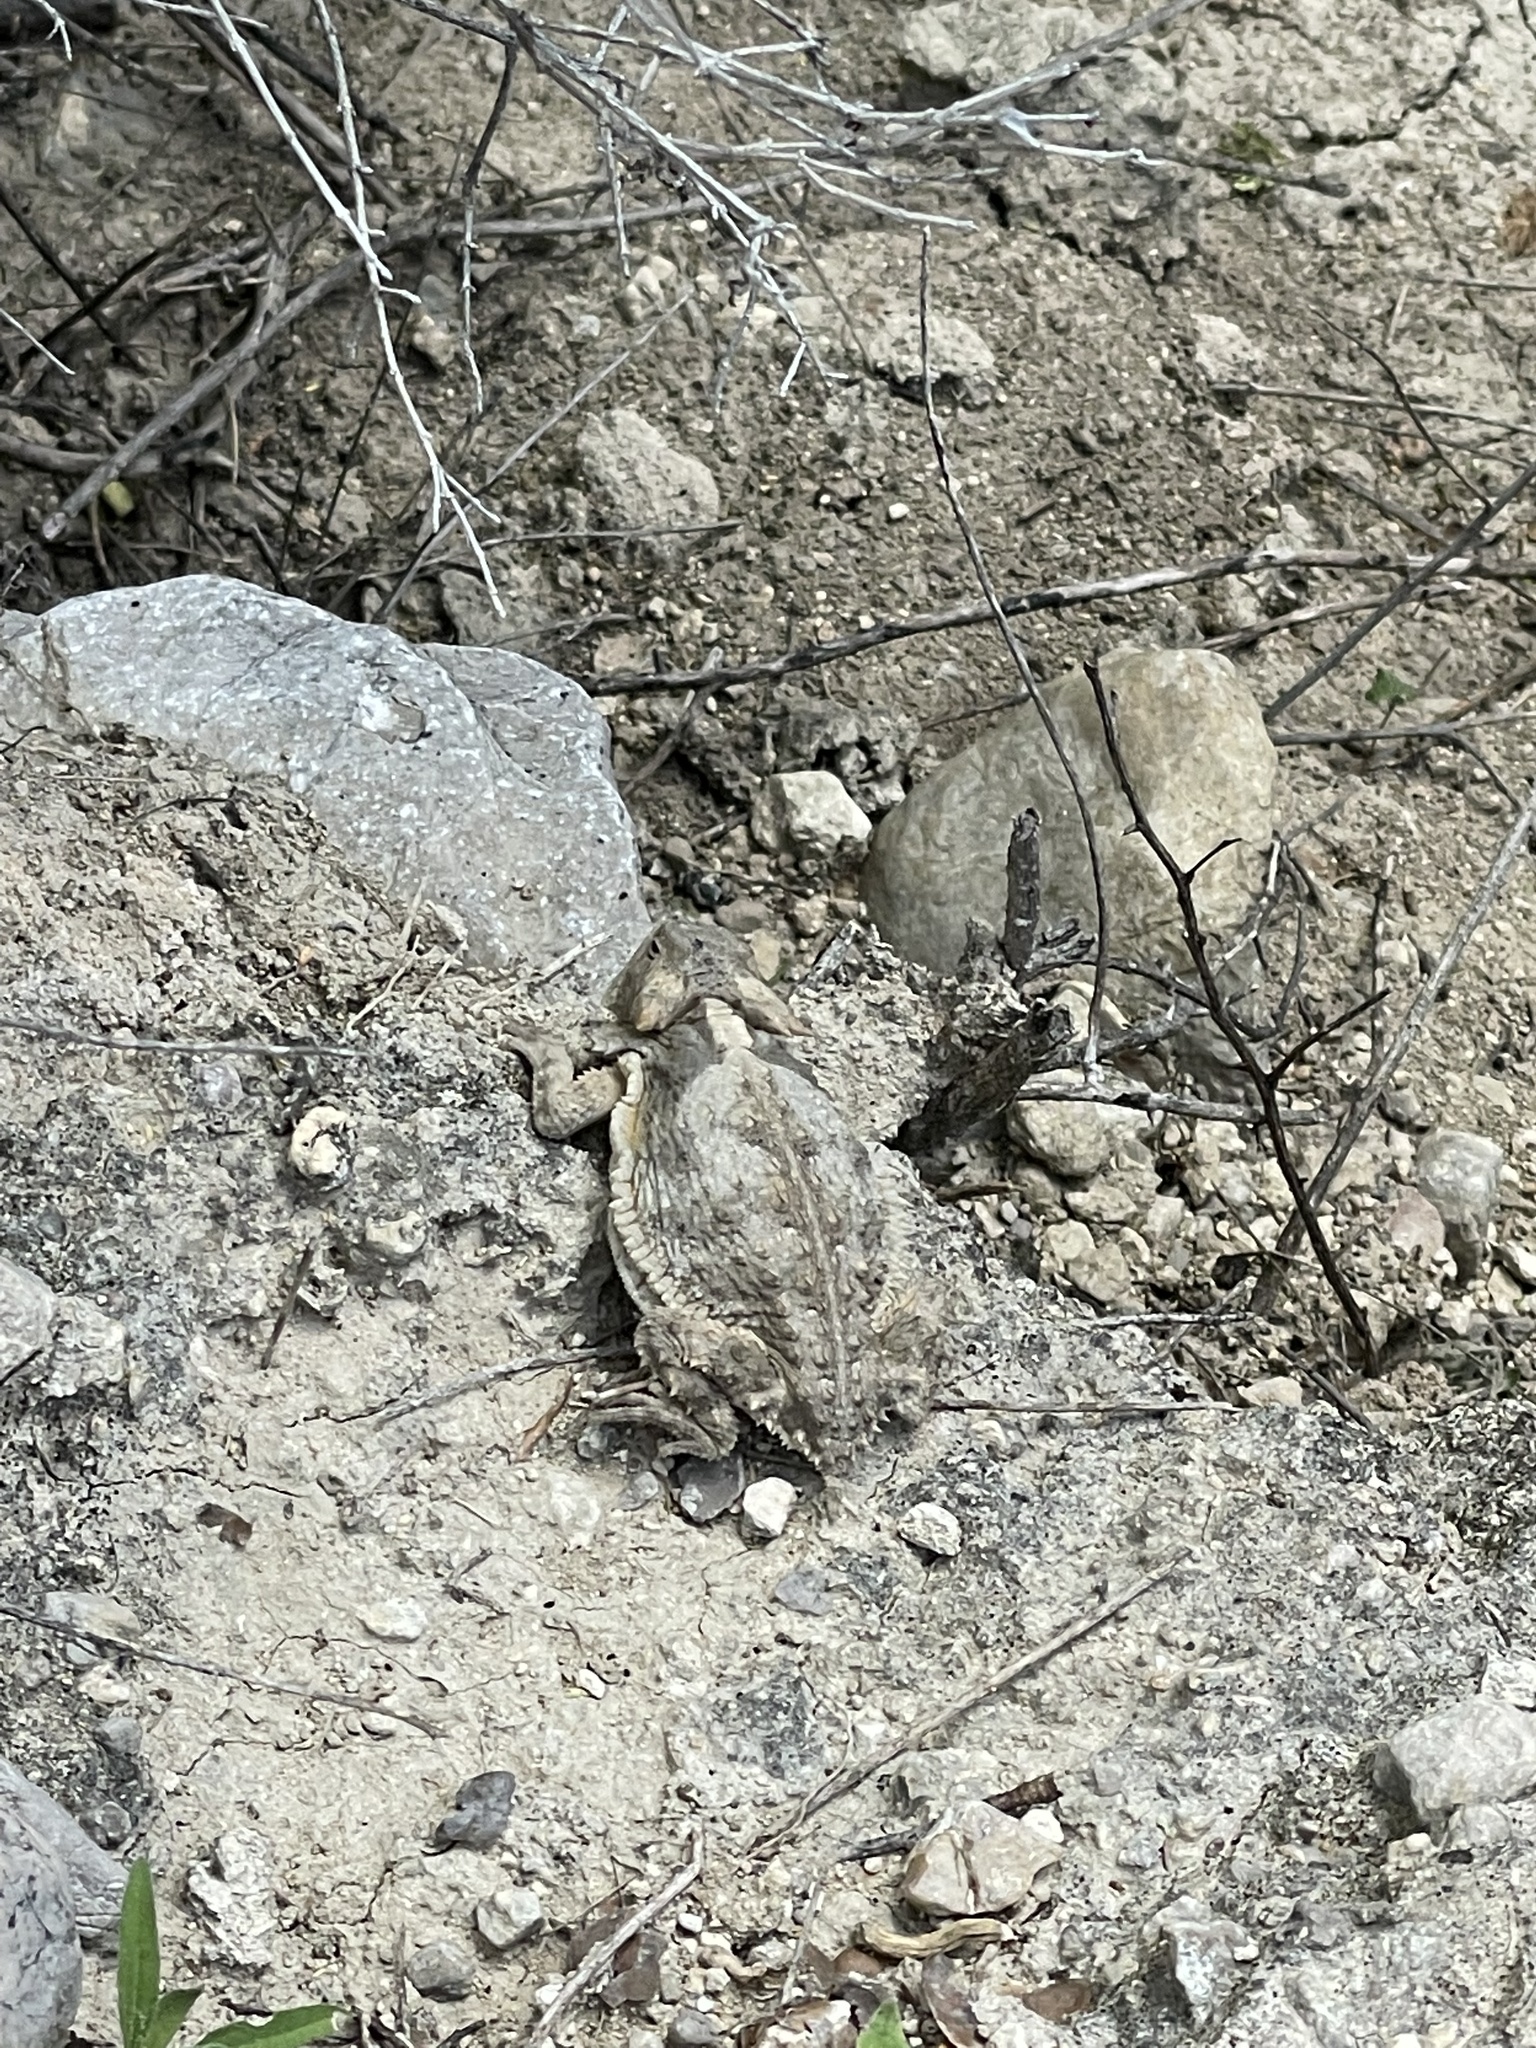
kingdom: Animalia
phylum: Chordata
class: Squamata
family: Phrynosomatidae
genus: Phrynosoma
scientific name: Phrynosoma taurus
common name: Mexican horned lizard
